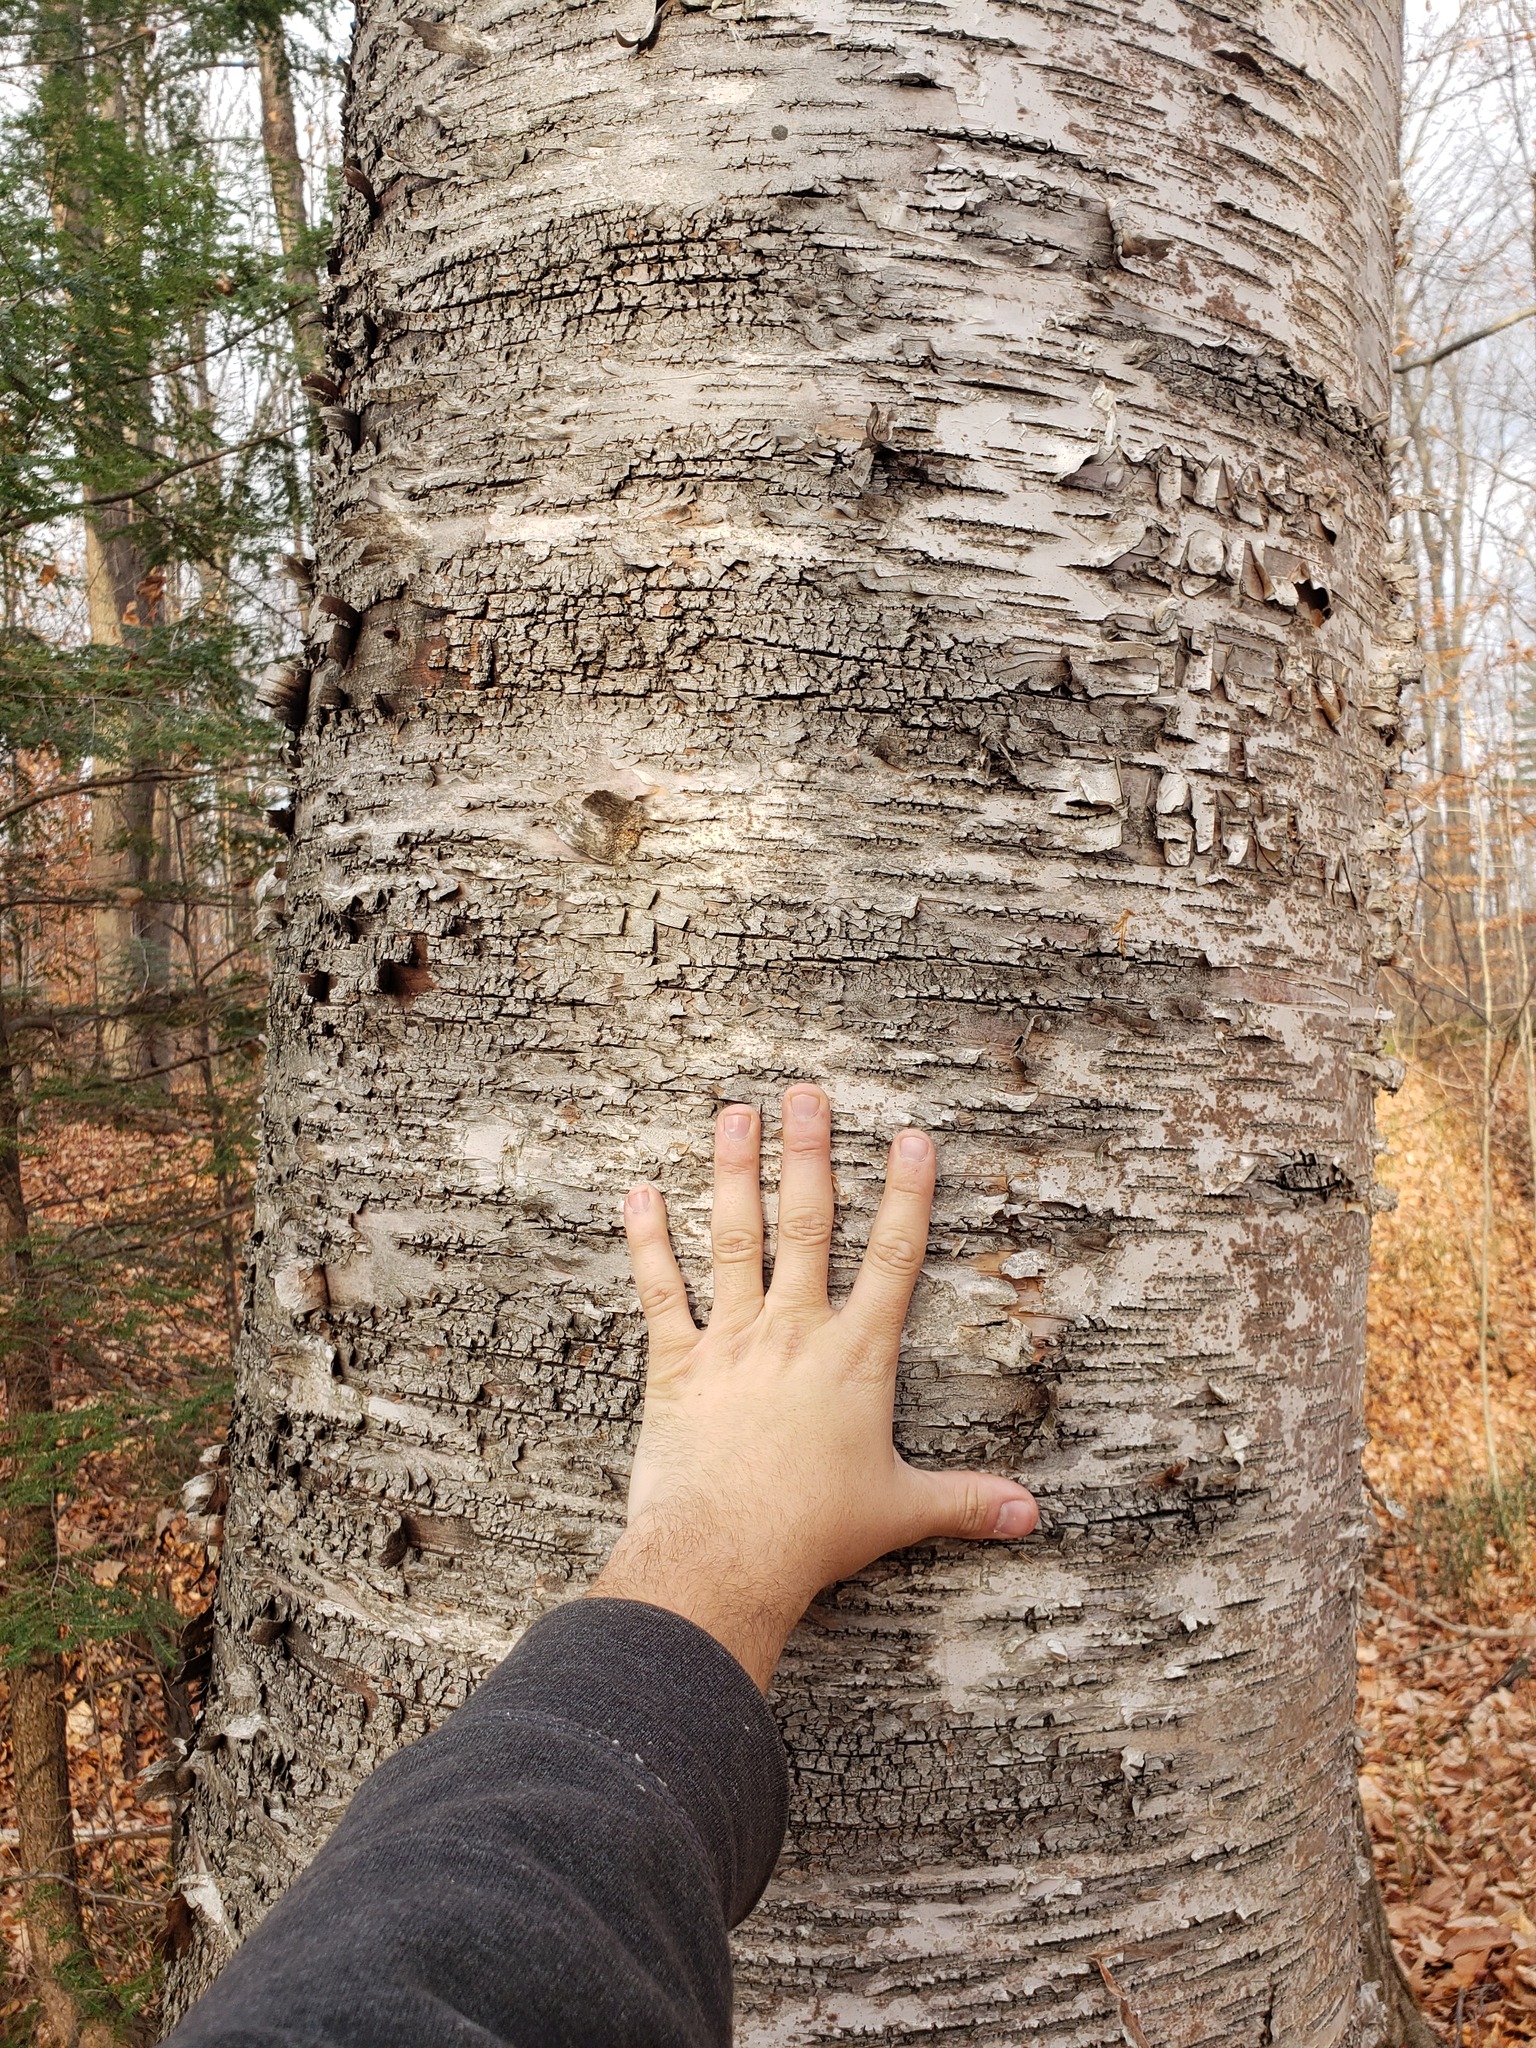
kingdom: Plantae
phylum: Tracheophyta
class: Magnoliopsida
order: Fagales
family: Betulaceae
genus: Betula
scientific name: Betula papyrifera
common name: Paper birch
